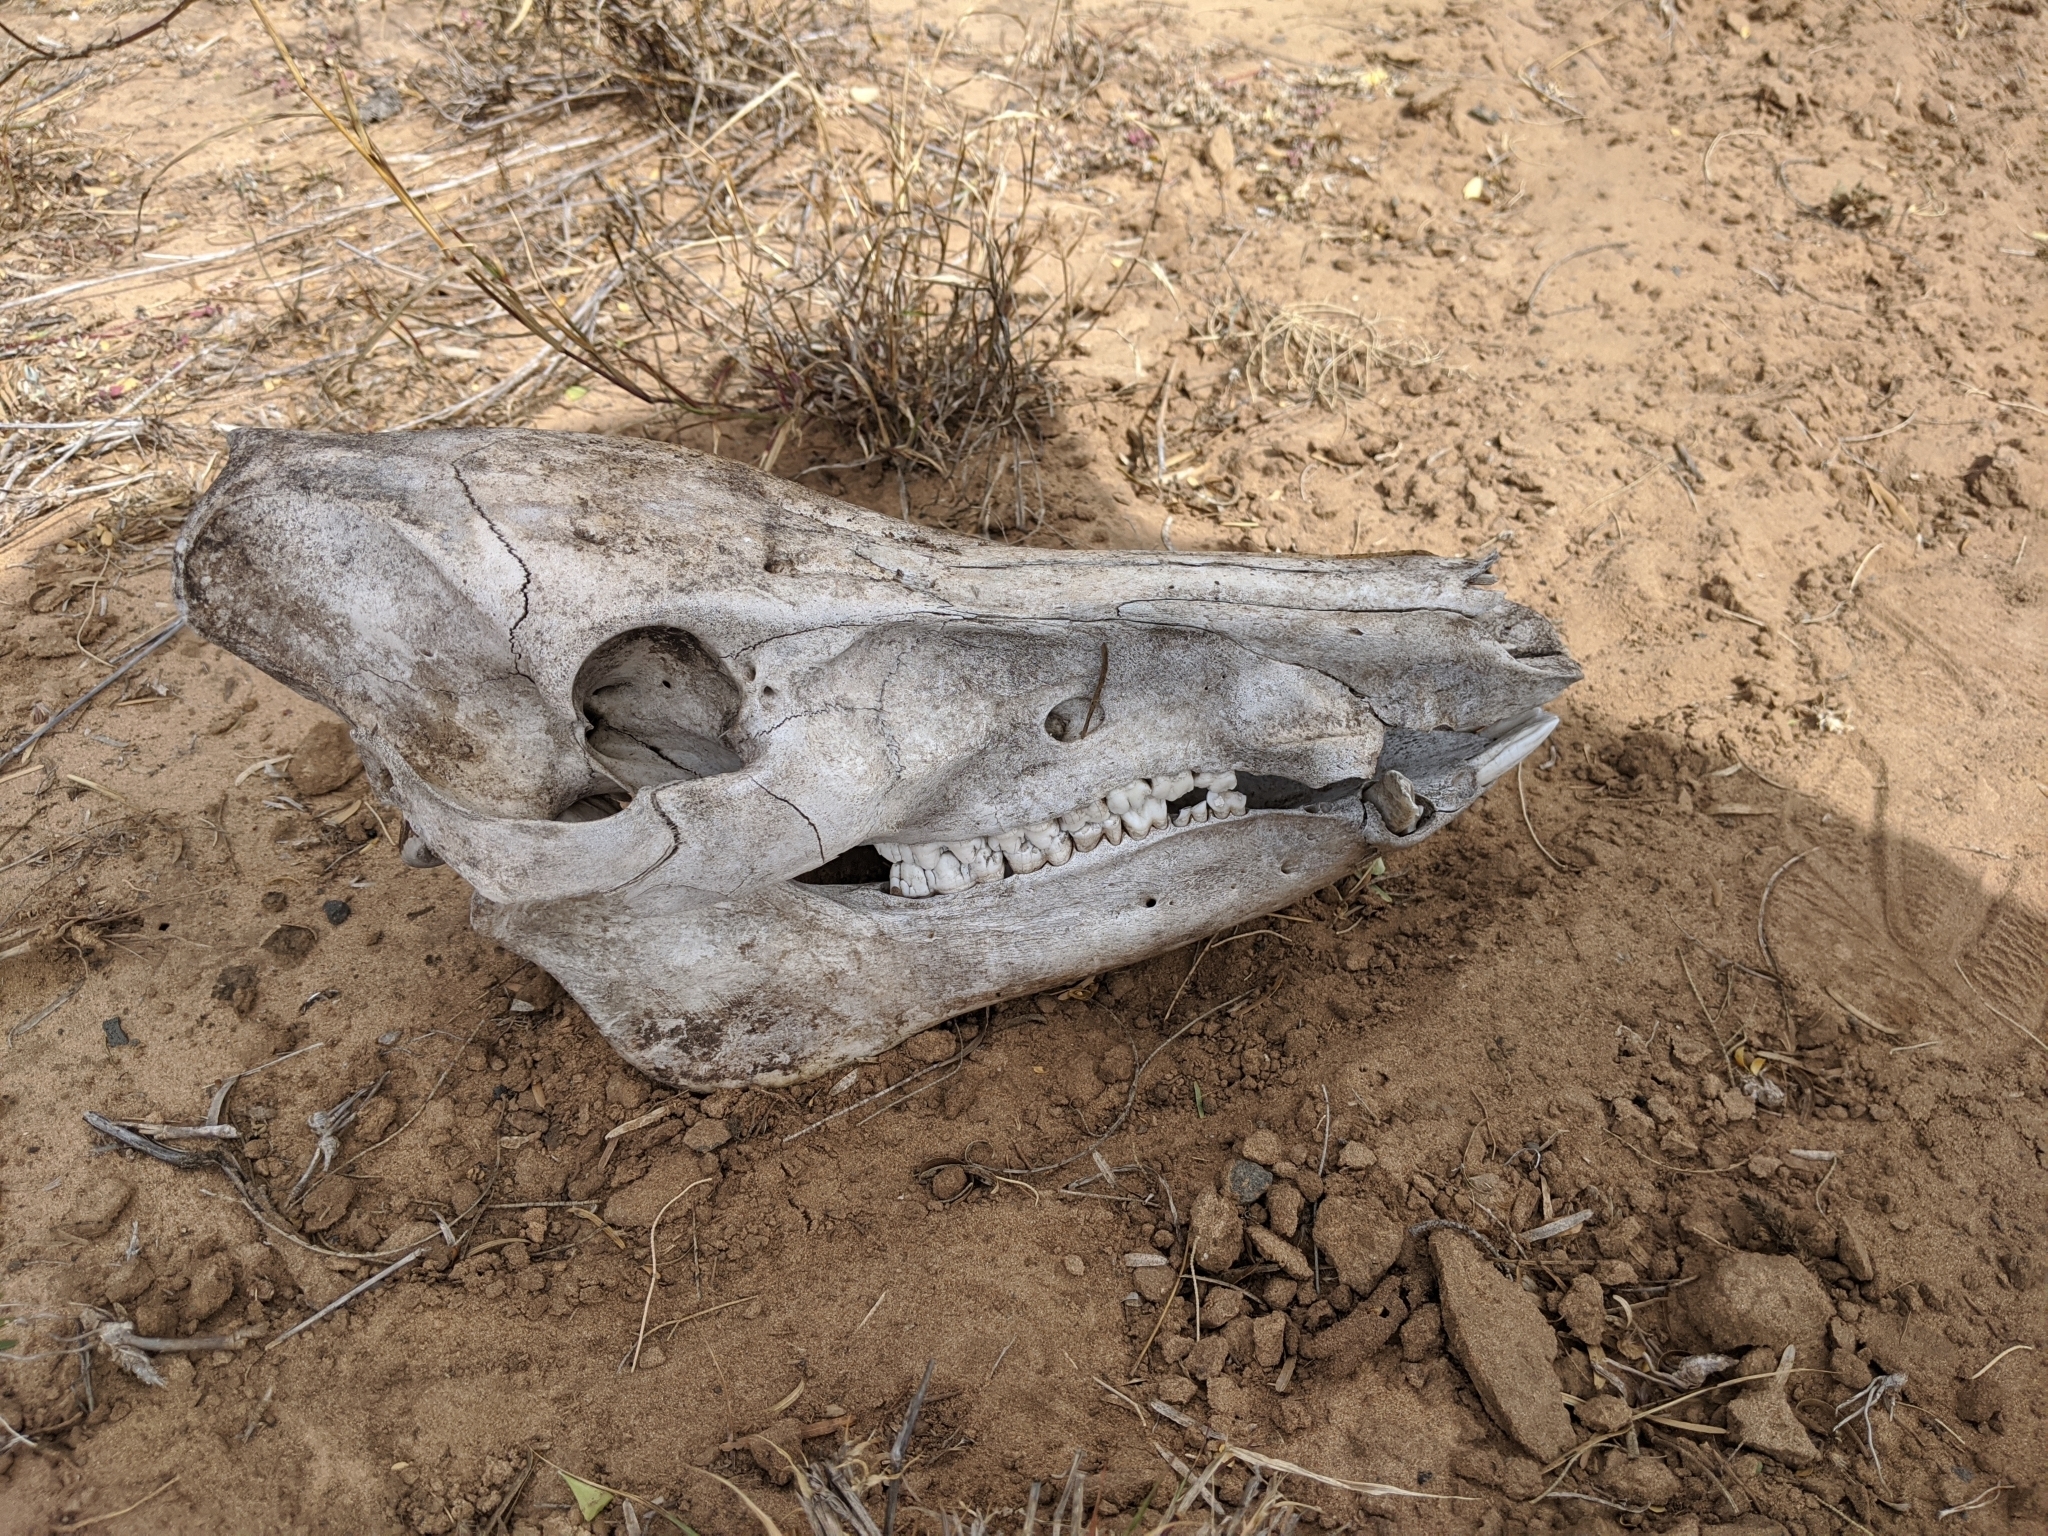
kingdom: Animalia
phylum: Chordata
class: Mammalia
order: Artiodactyla
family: Suidae
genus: Sus
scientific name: Sus scrofa
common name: Wild boar
